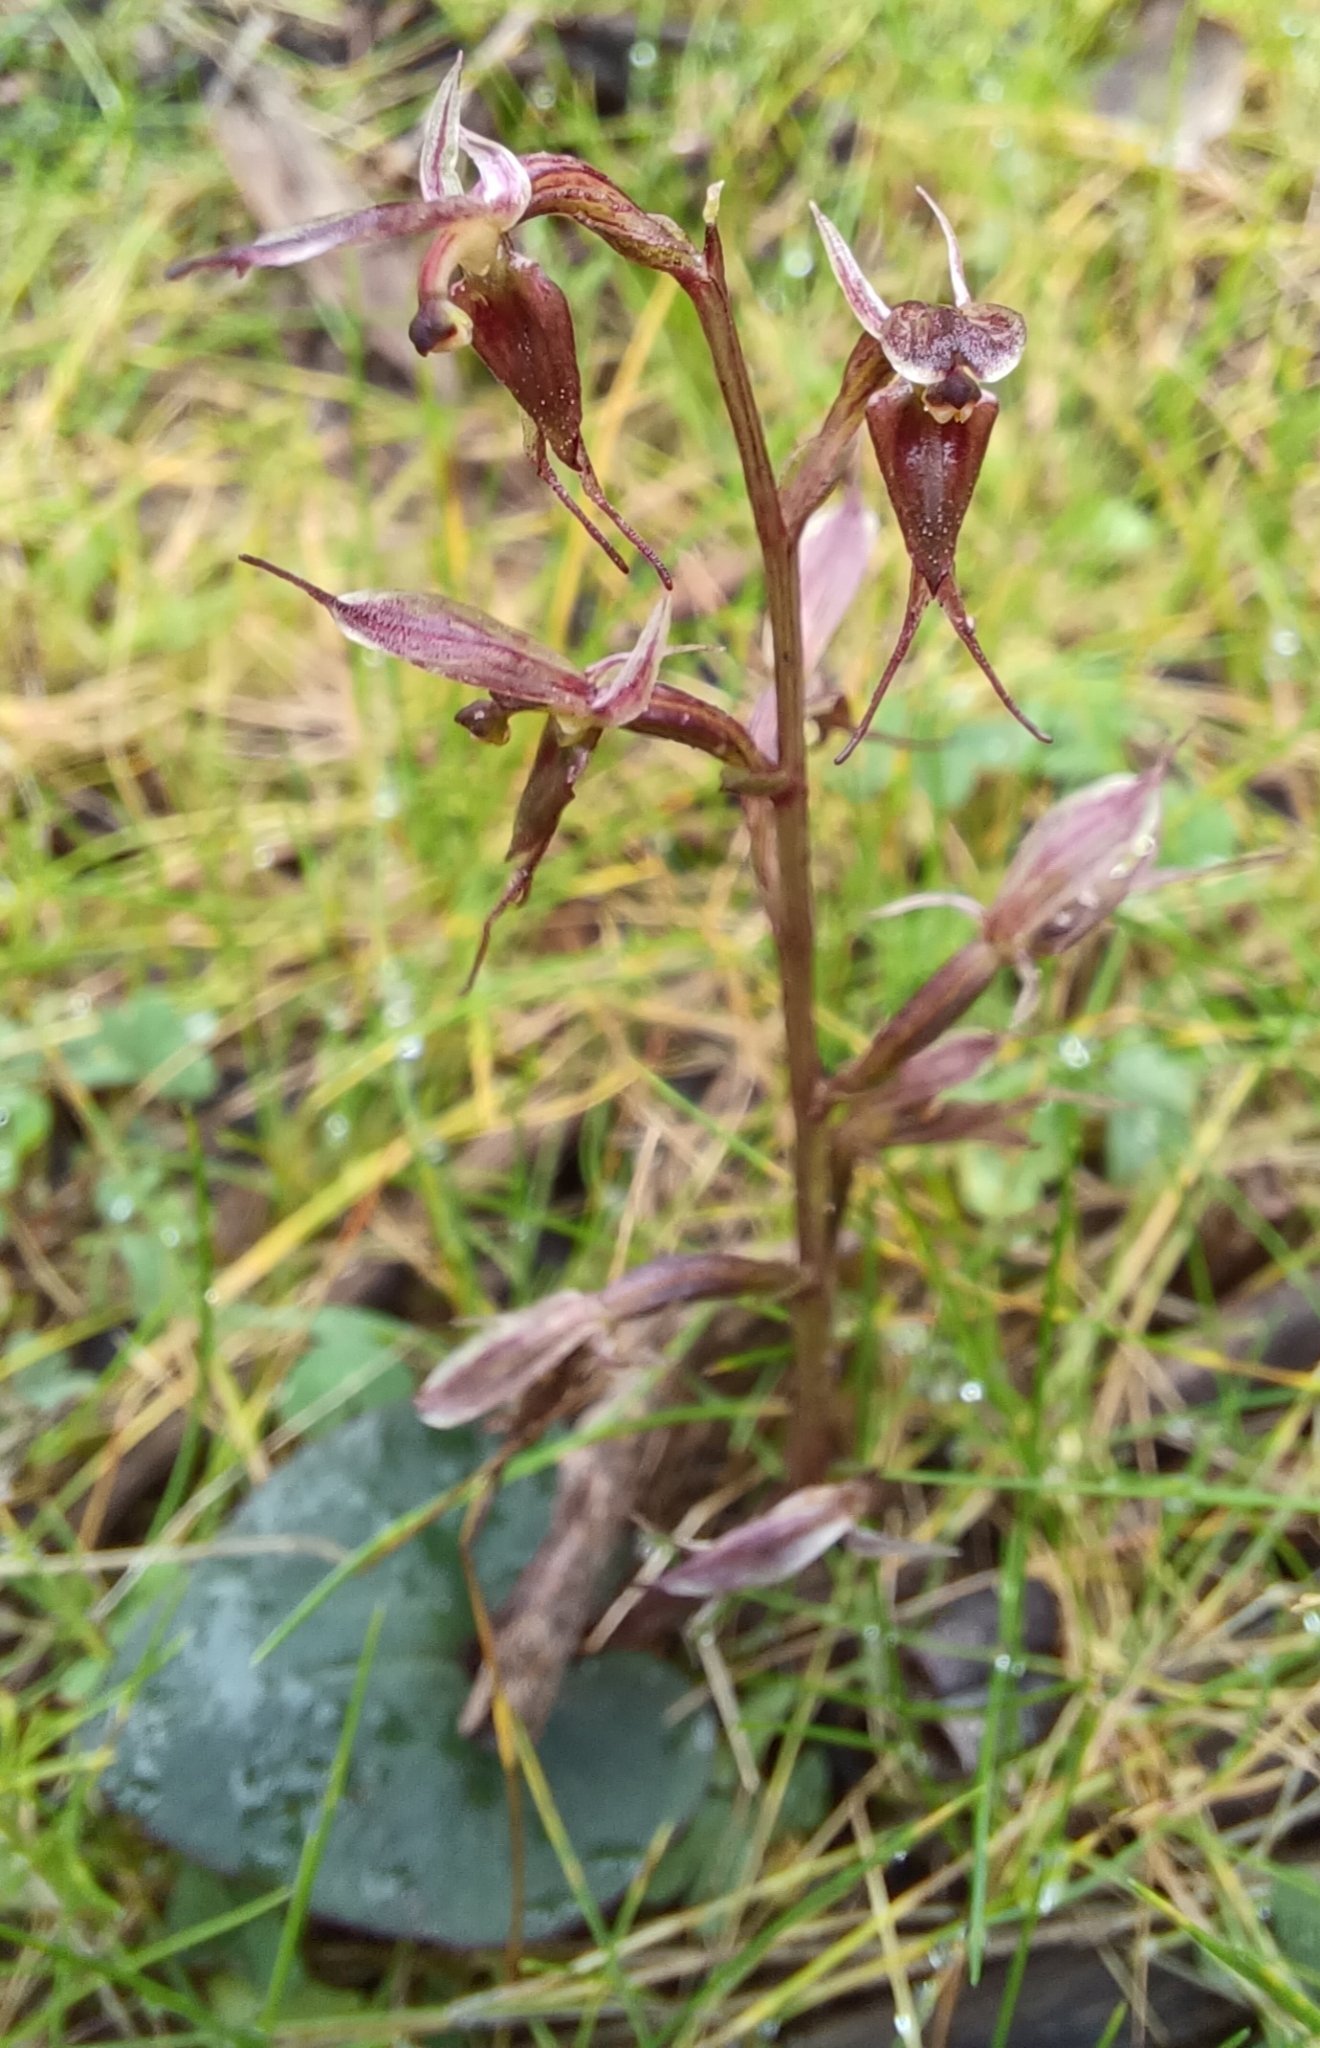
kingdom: Plantae
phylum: Tracheophyta
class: Liliopsida
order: Asparagales
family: Orchidaceae
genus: Acianthus
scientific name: Acianthus pusillus
